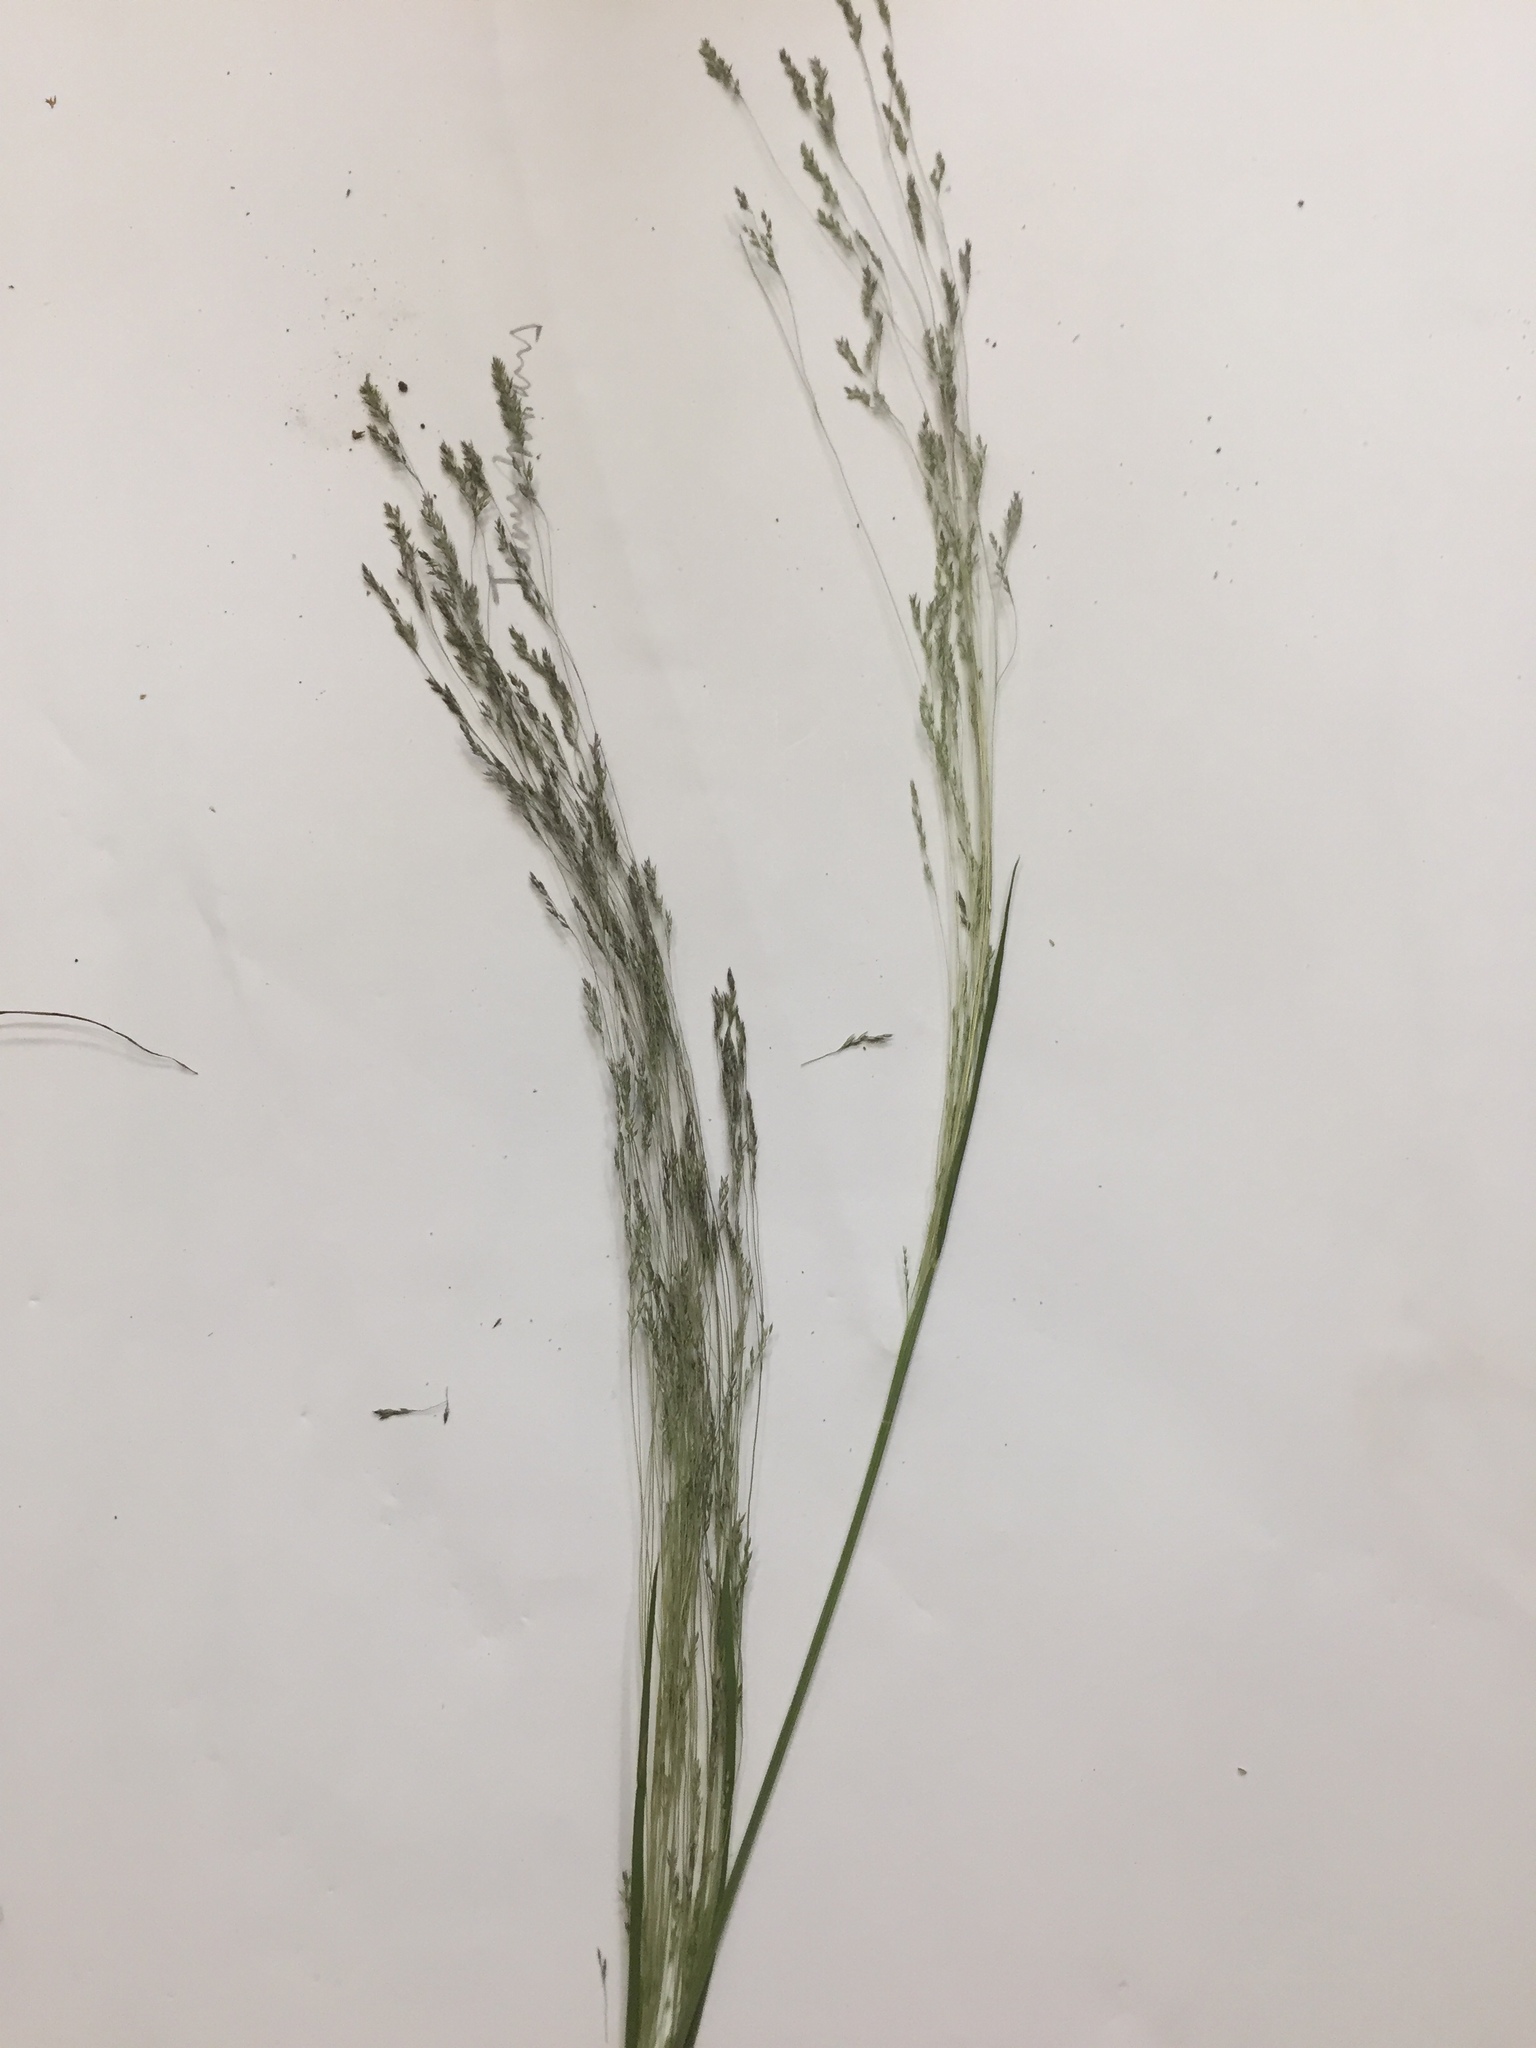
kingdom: Plantae
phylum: Tracheophyta
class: Liliopsida
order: Poales
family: Poaceae
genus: Agrostis
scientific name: Agrostis hyemalis
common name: Small bent
